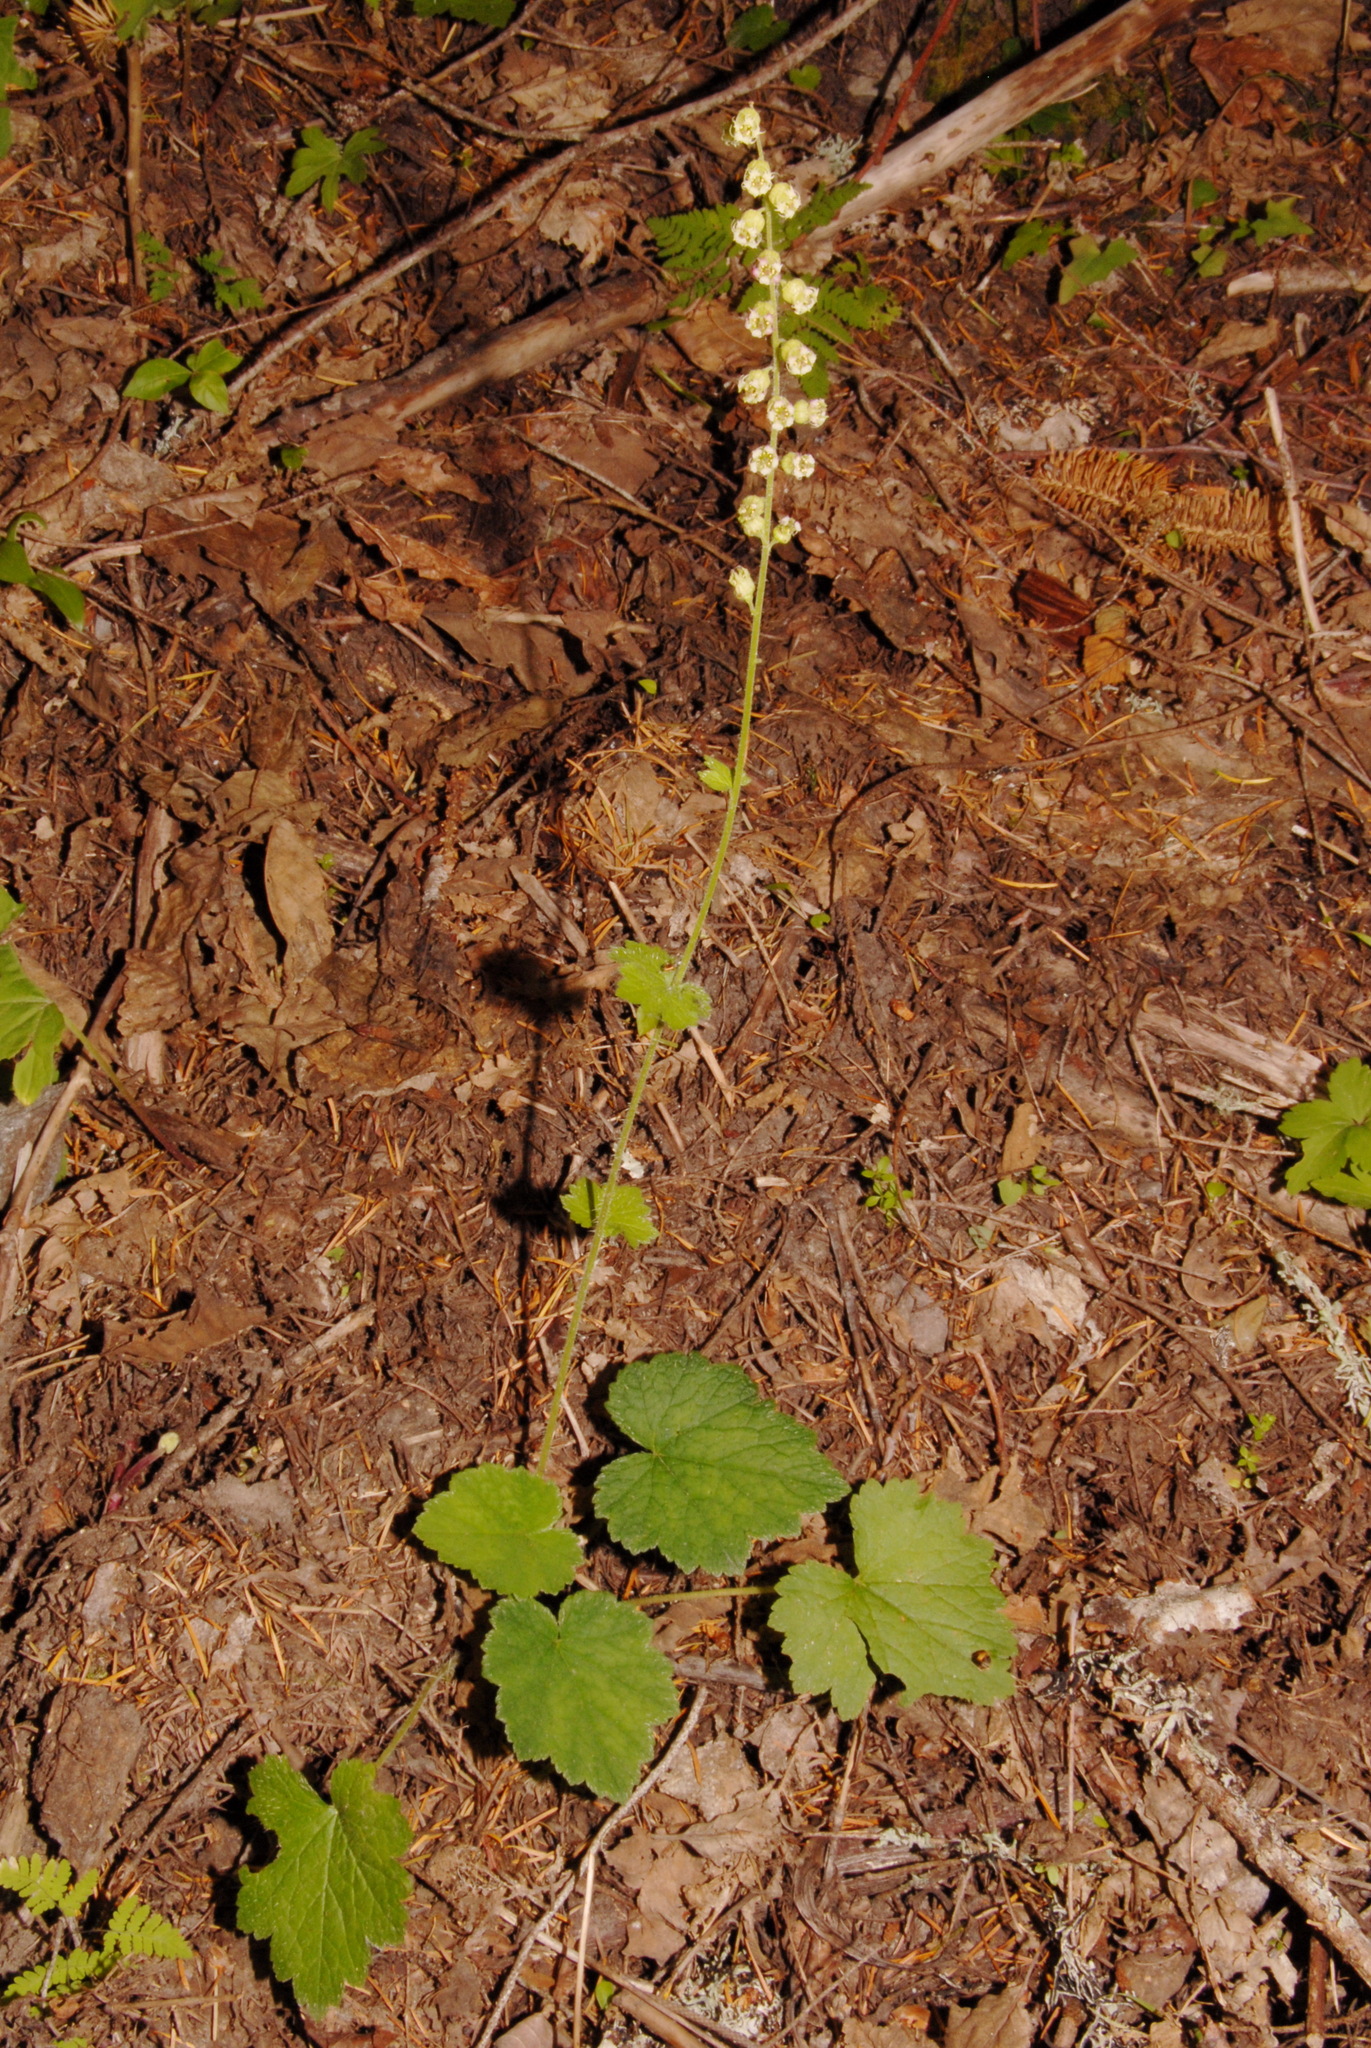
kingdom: Plantae
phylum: Tracheophyta
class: Magnoliopsida
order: Saxifragales
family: Saxifragaceae
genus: Tellima
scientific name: Tellima grandiflora
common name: Fringecups
